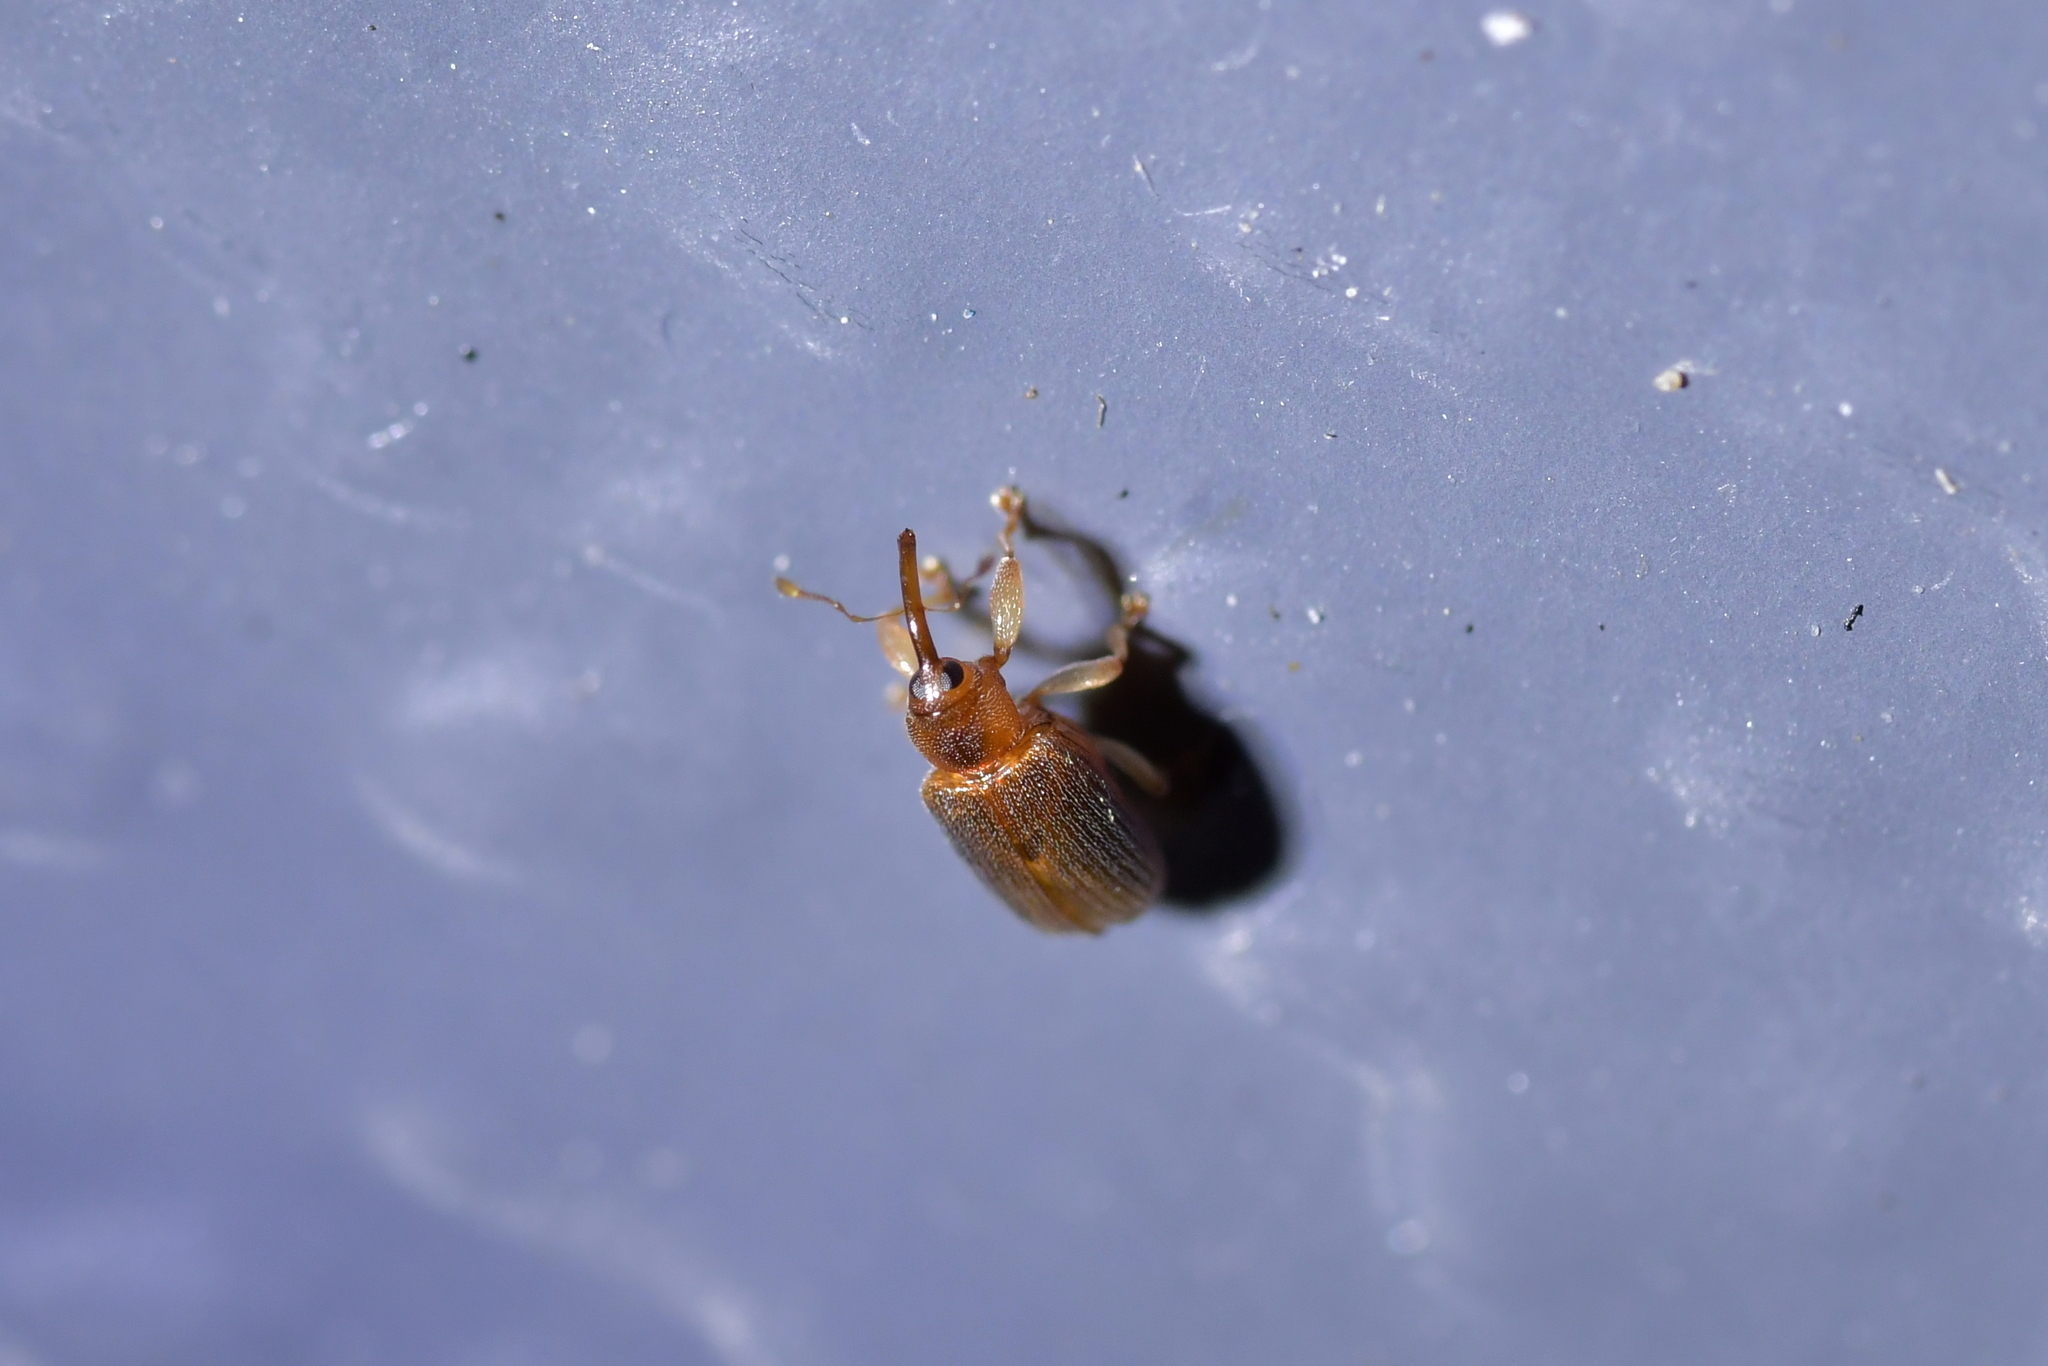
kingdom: Animalia
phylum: Arthropoda
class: Insecta
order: Coleoptera
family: Curculionidae
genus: Aneuma
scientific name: Aneuma fulvipes
